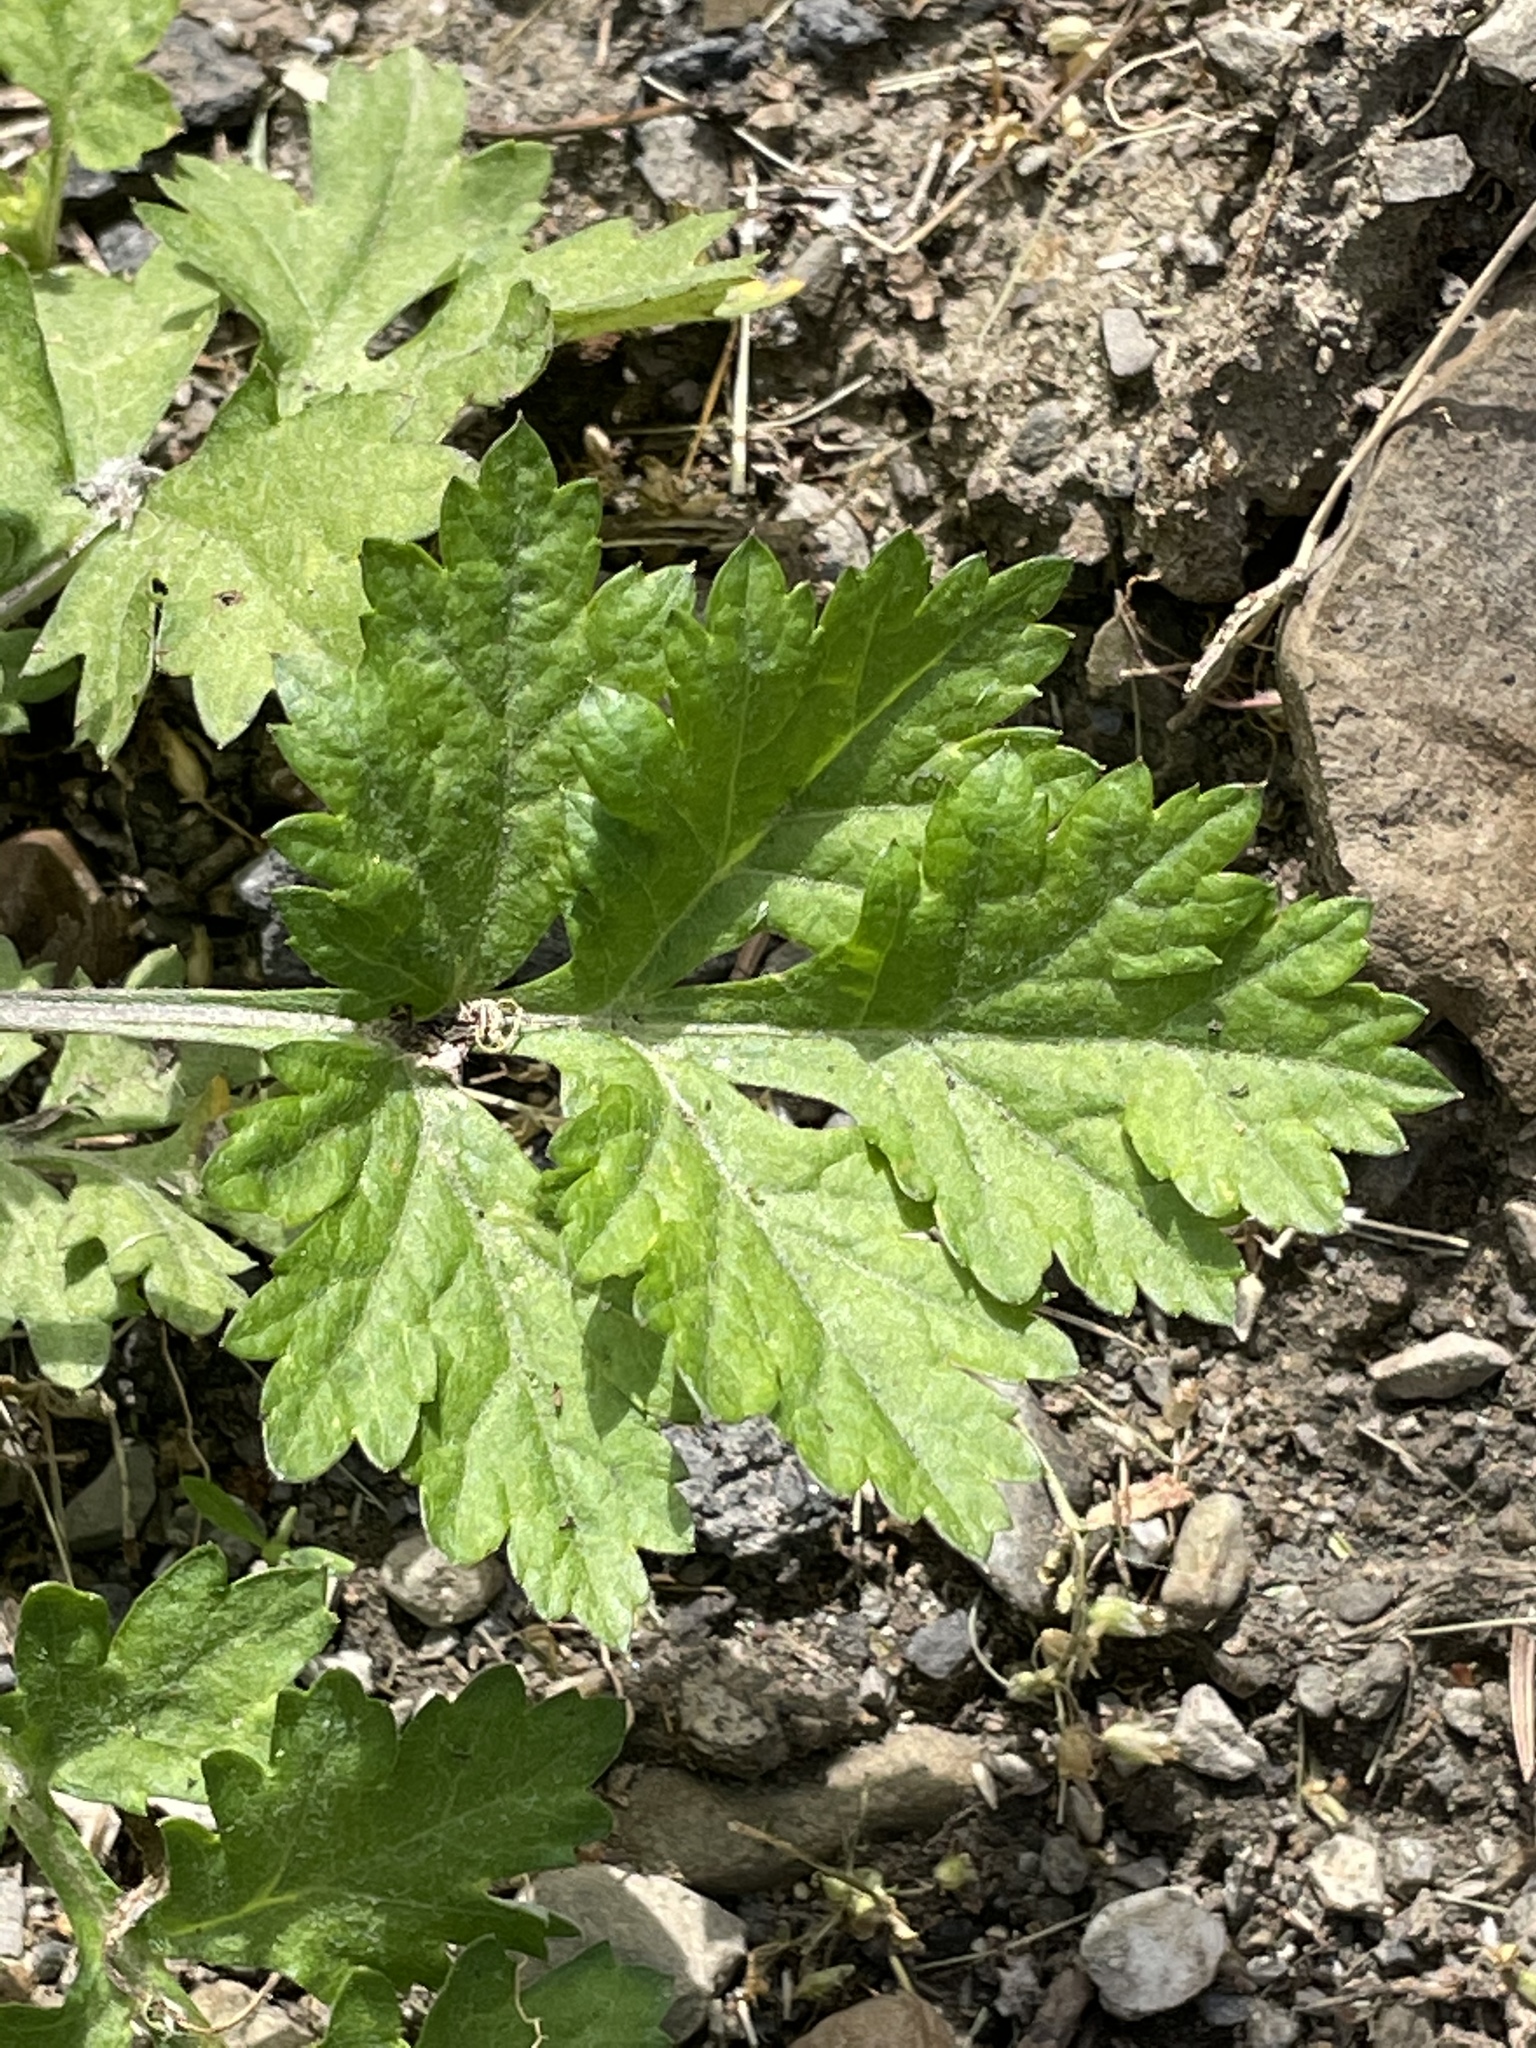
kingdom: Plantae
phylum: Tracheophyta
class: Magnoliopsida
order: Asterales
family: Asteraceae
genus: Artemisia
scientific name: Artemisia vulgaris
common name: Mugwort
